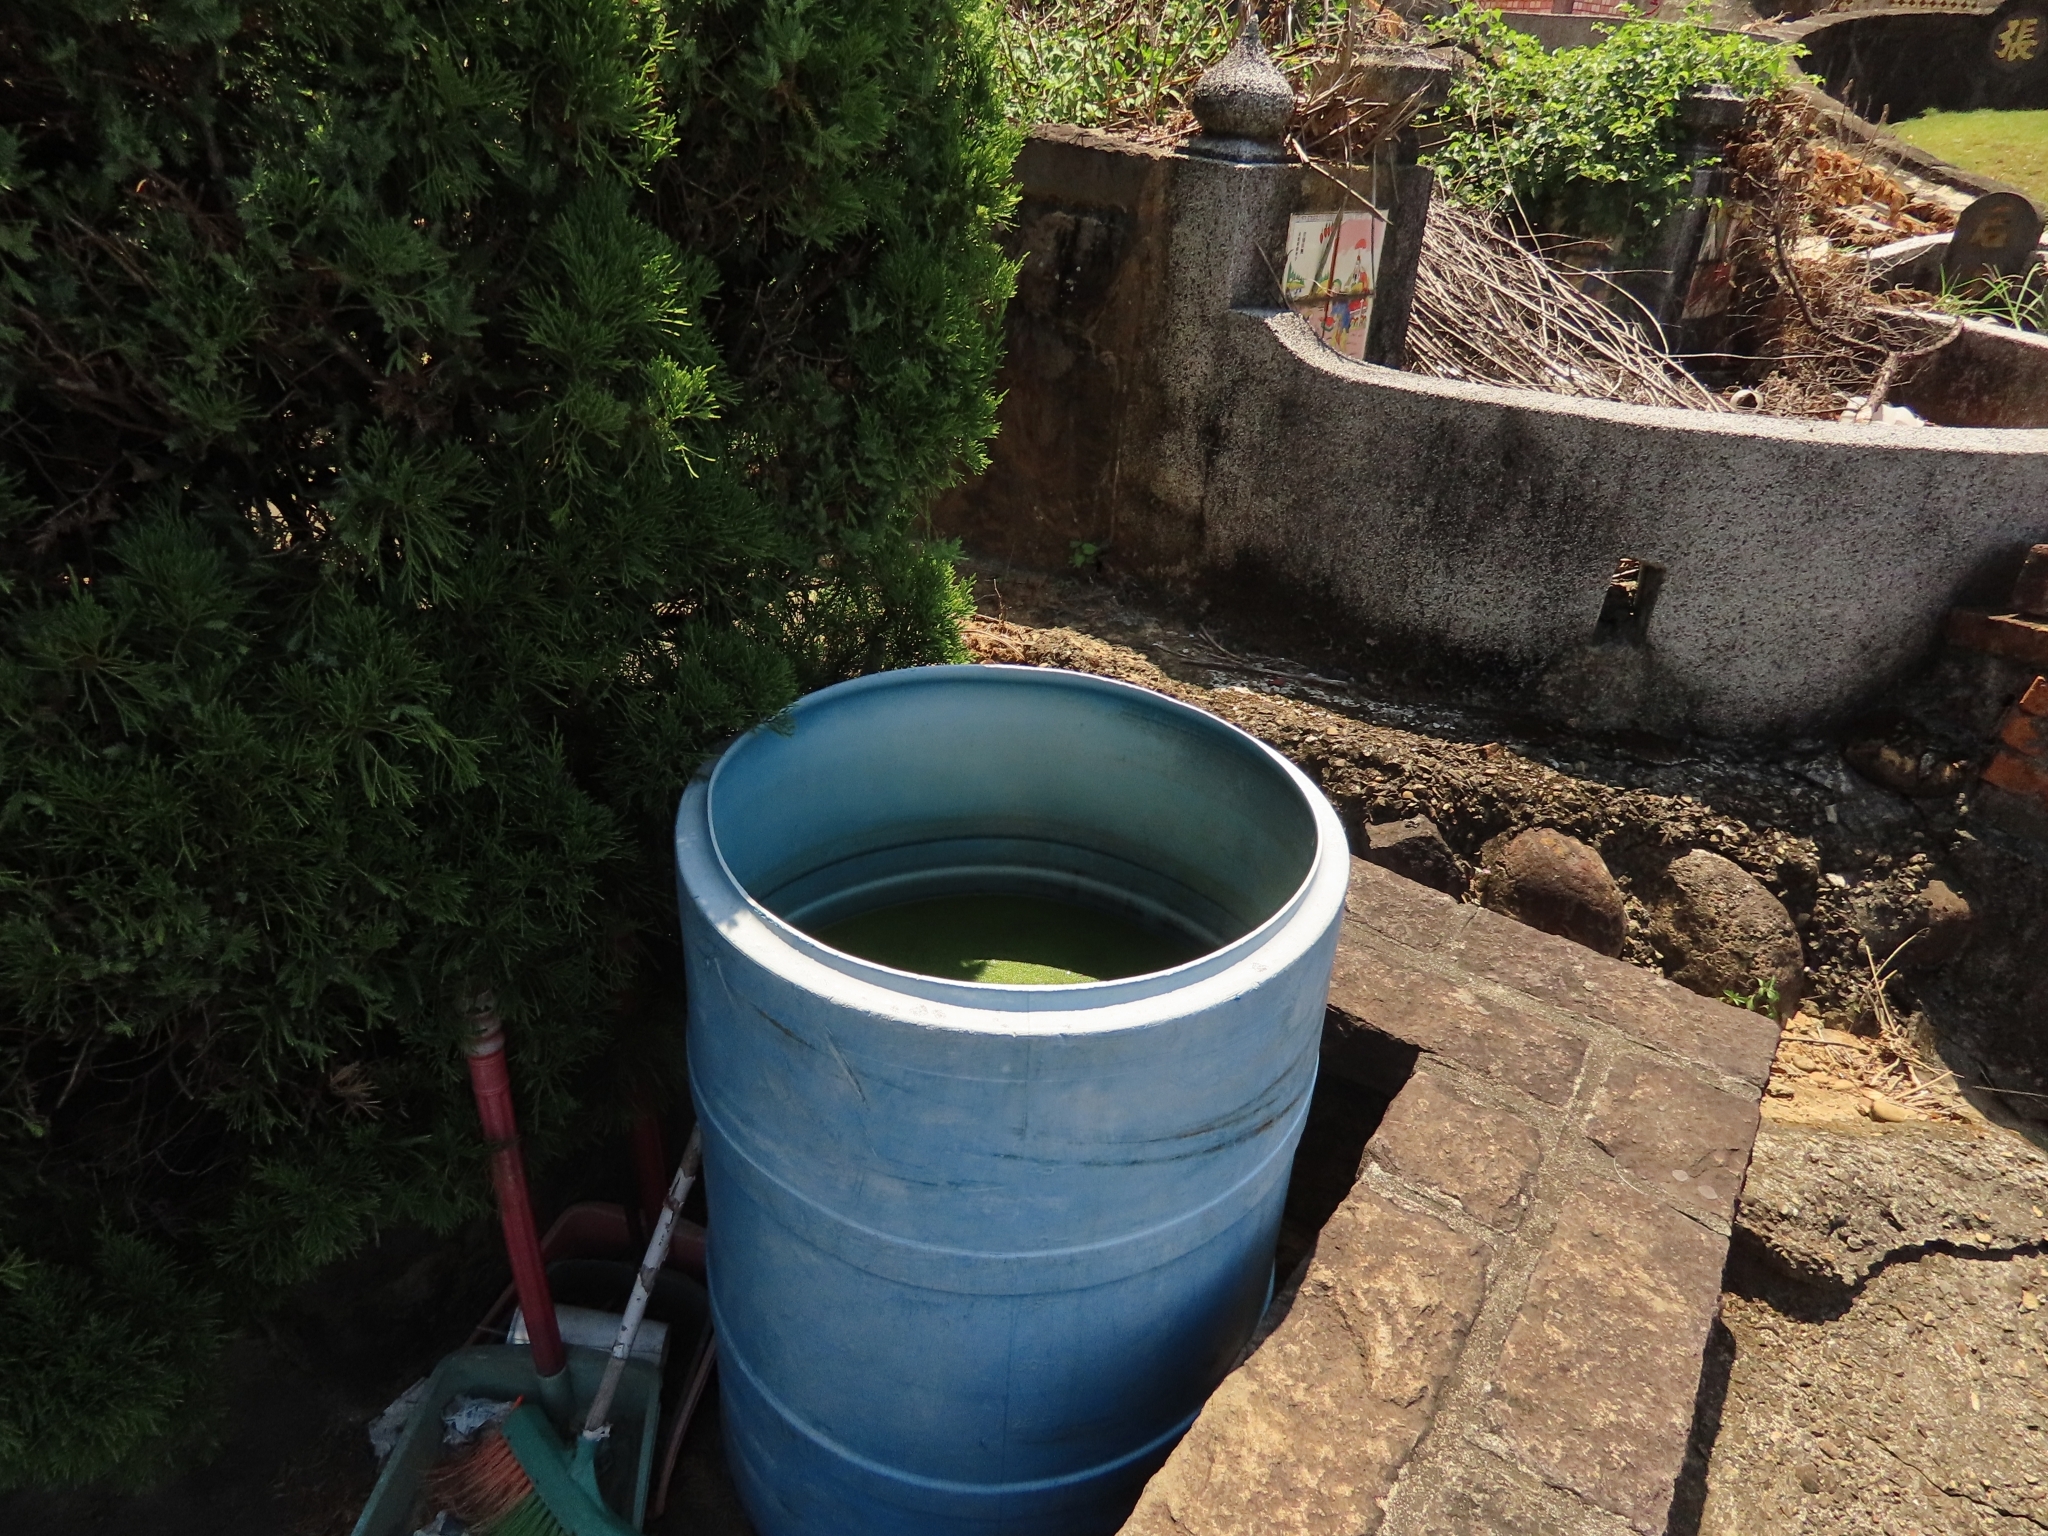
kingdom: Plantae
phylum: Tracheophyta
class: Liliopsida
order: Alismatales
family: Araceae
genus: Wolffia
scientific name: Wolffia globosa
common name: Asian watermeal
